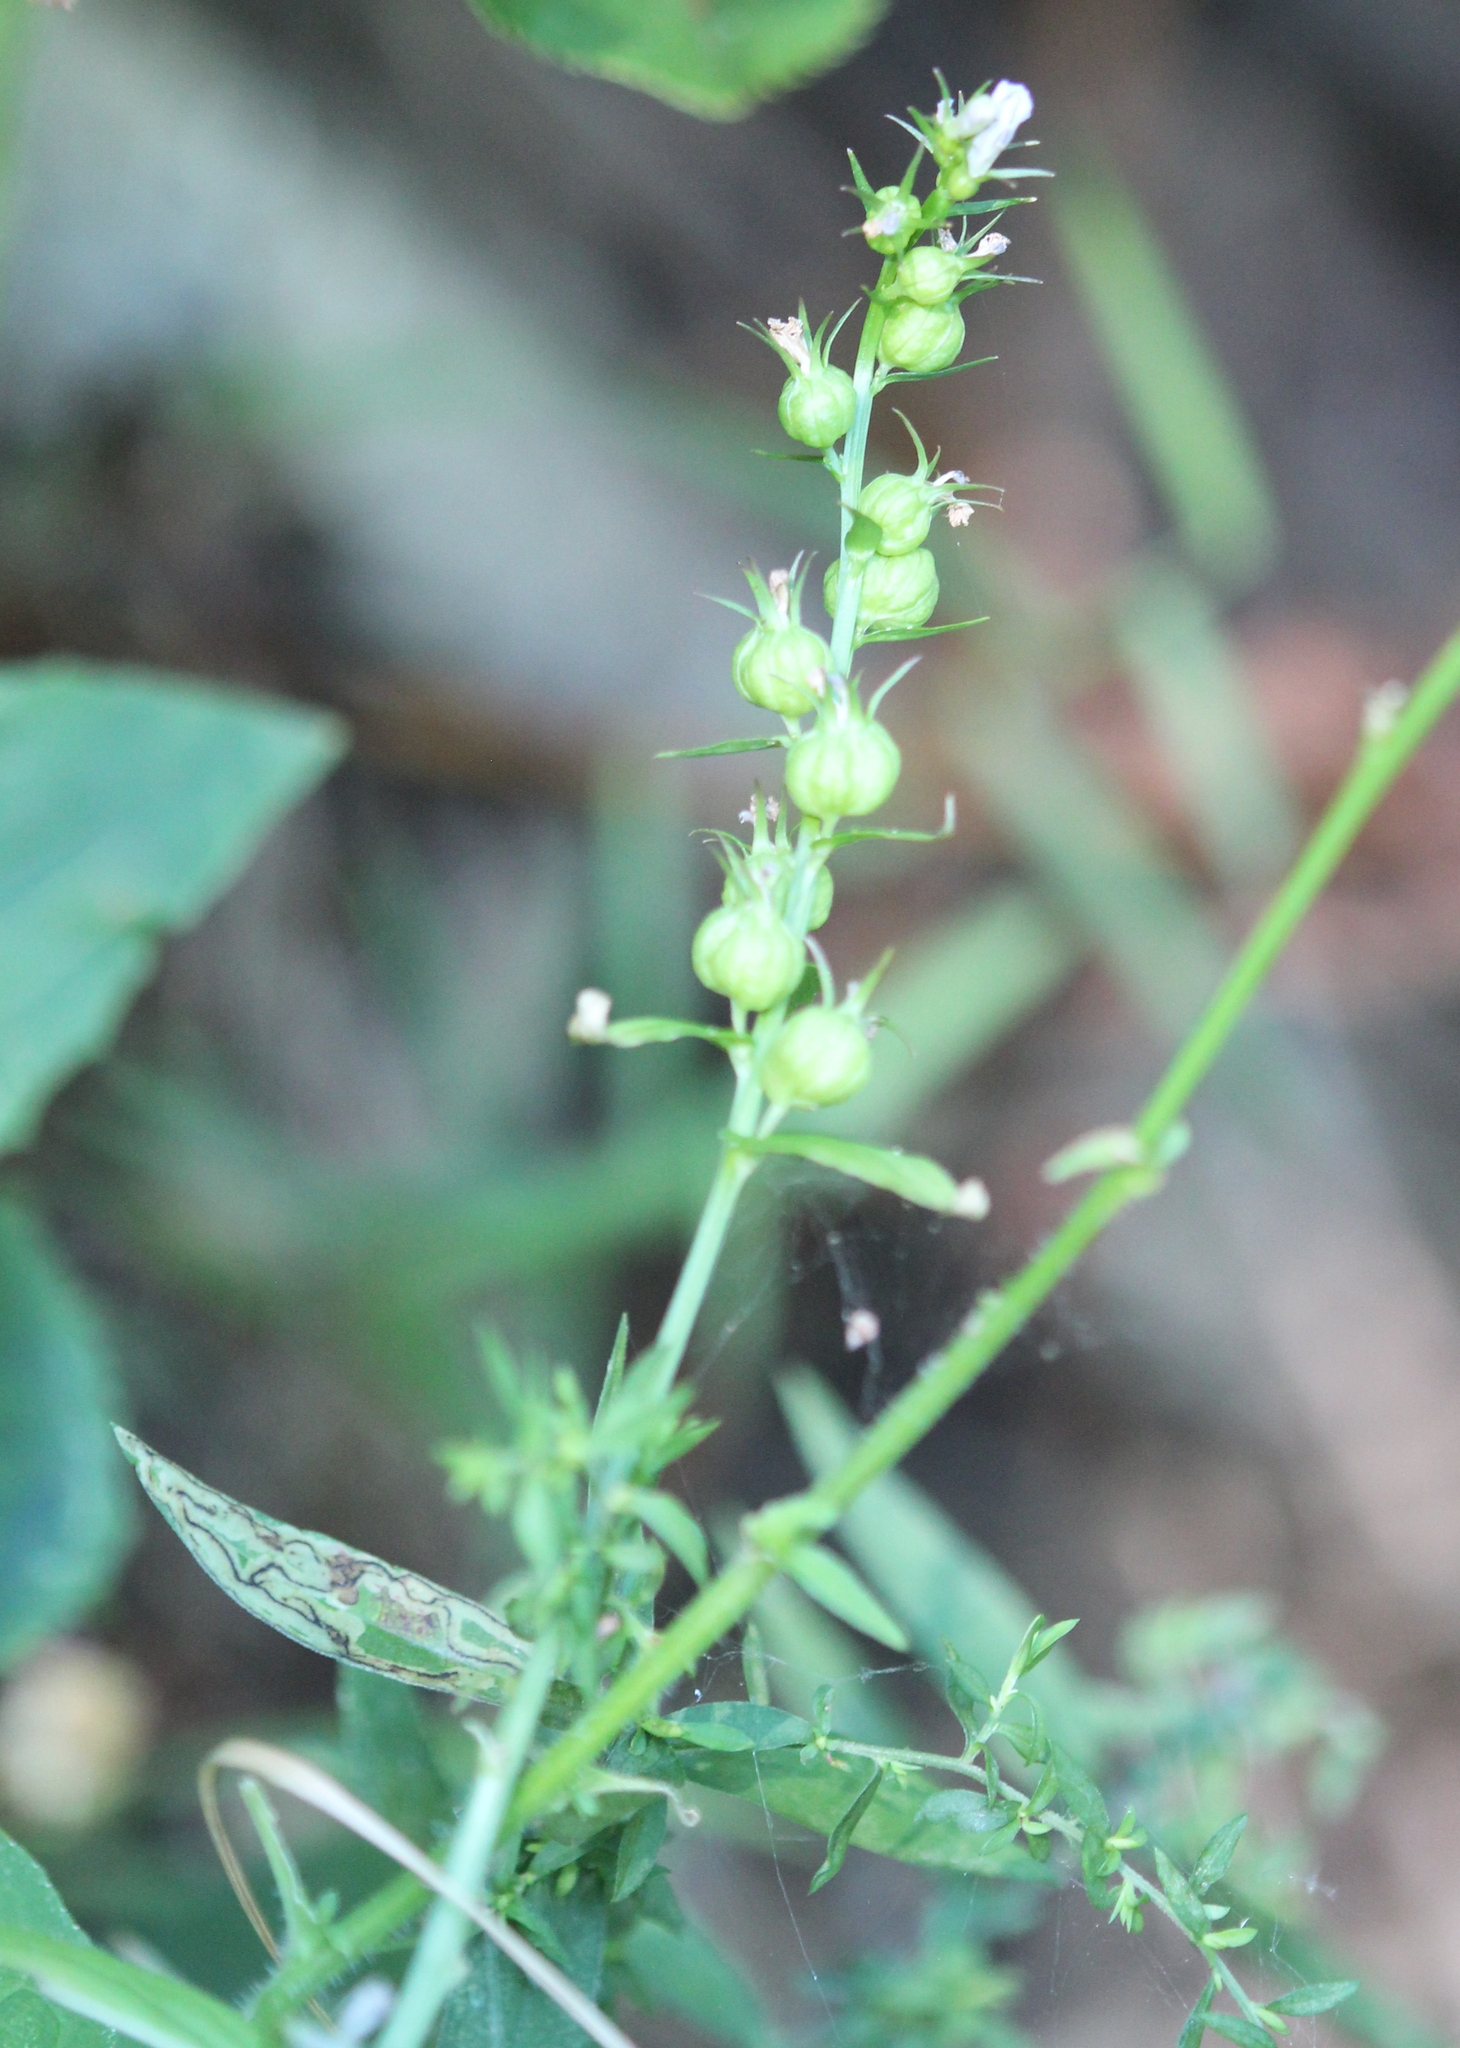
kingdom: Plantae
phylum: Tracheophyta
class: Magnoliopsida
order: Asterales
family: Campanulaceae
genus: Lobelia
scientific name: Lobelia inflata
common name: Indian tobacco
